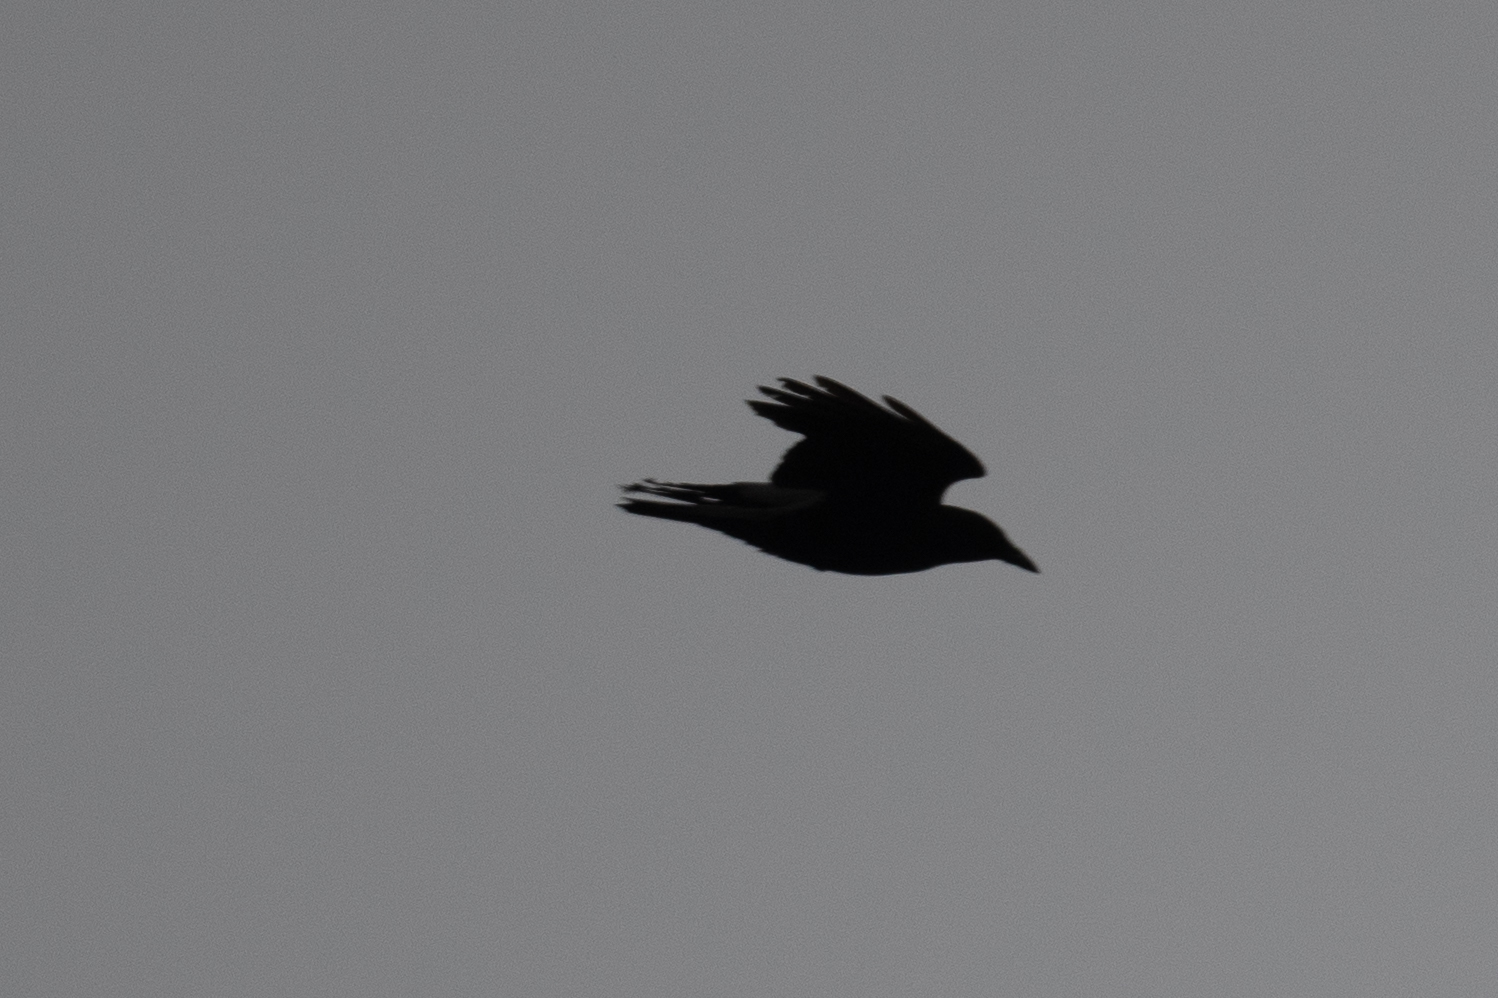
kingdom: Animalia
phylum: Chordata
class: Aves
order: Passeriformes
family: Corvidae
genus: Corvus
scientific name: Corvus brachyrhynchos
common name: American crow
